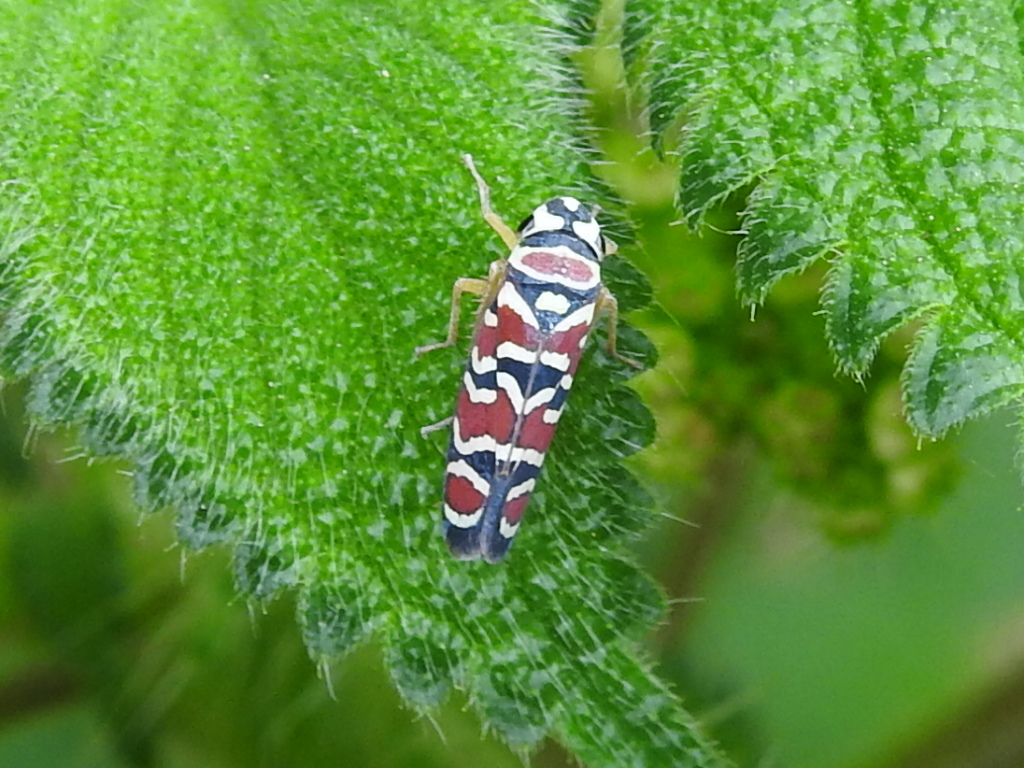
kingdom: Animalia
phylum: Arthropoda
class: Insecta
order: Hemiptera
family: Cicadellidae
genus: Agrosoma
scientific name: Agrosoma placetis
